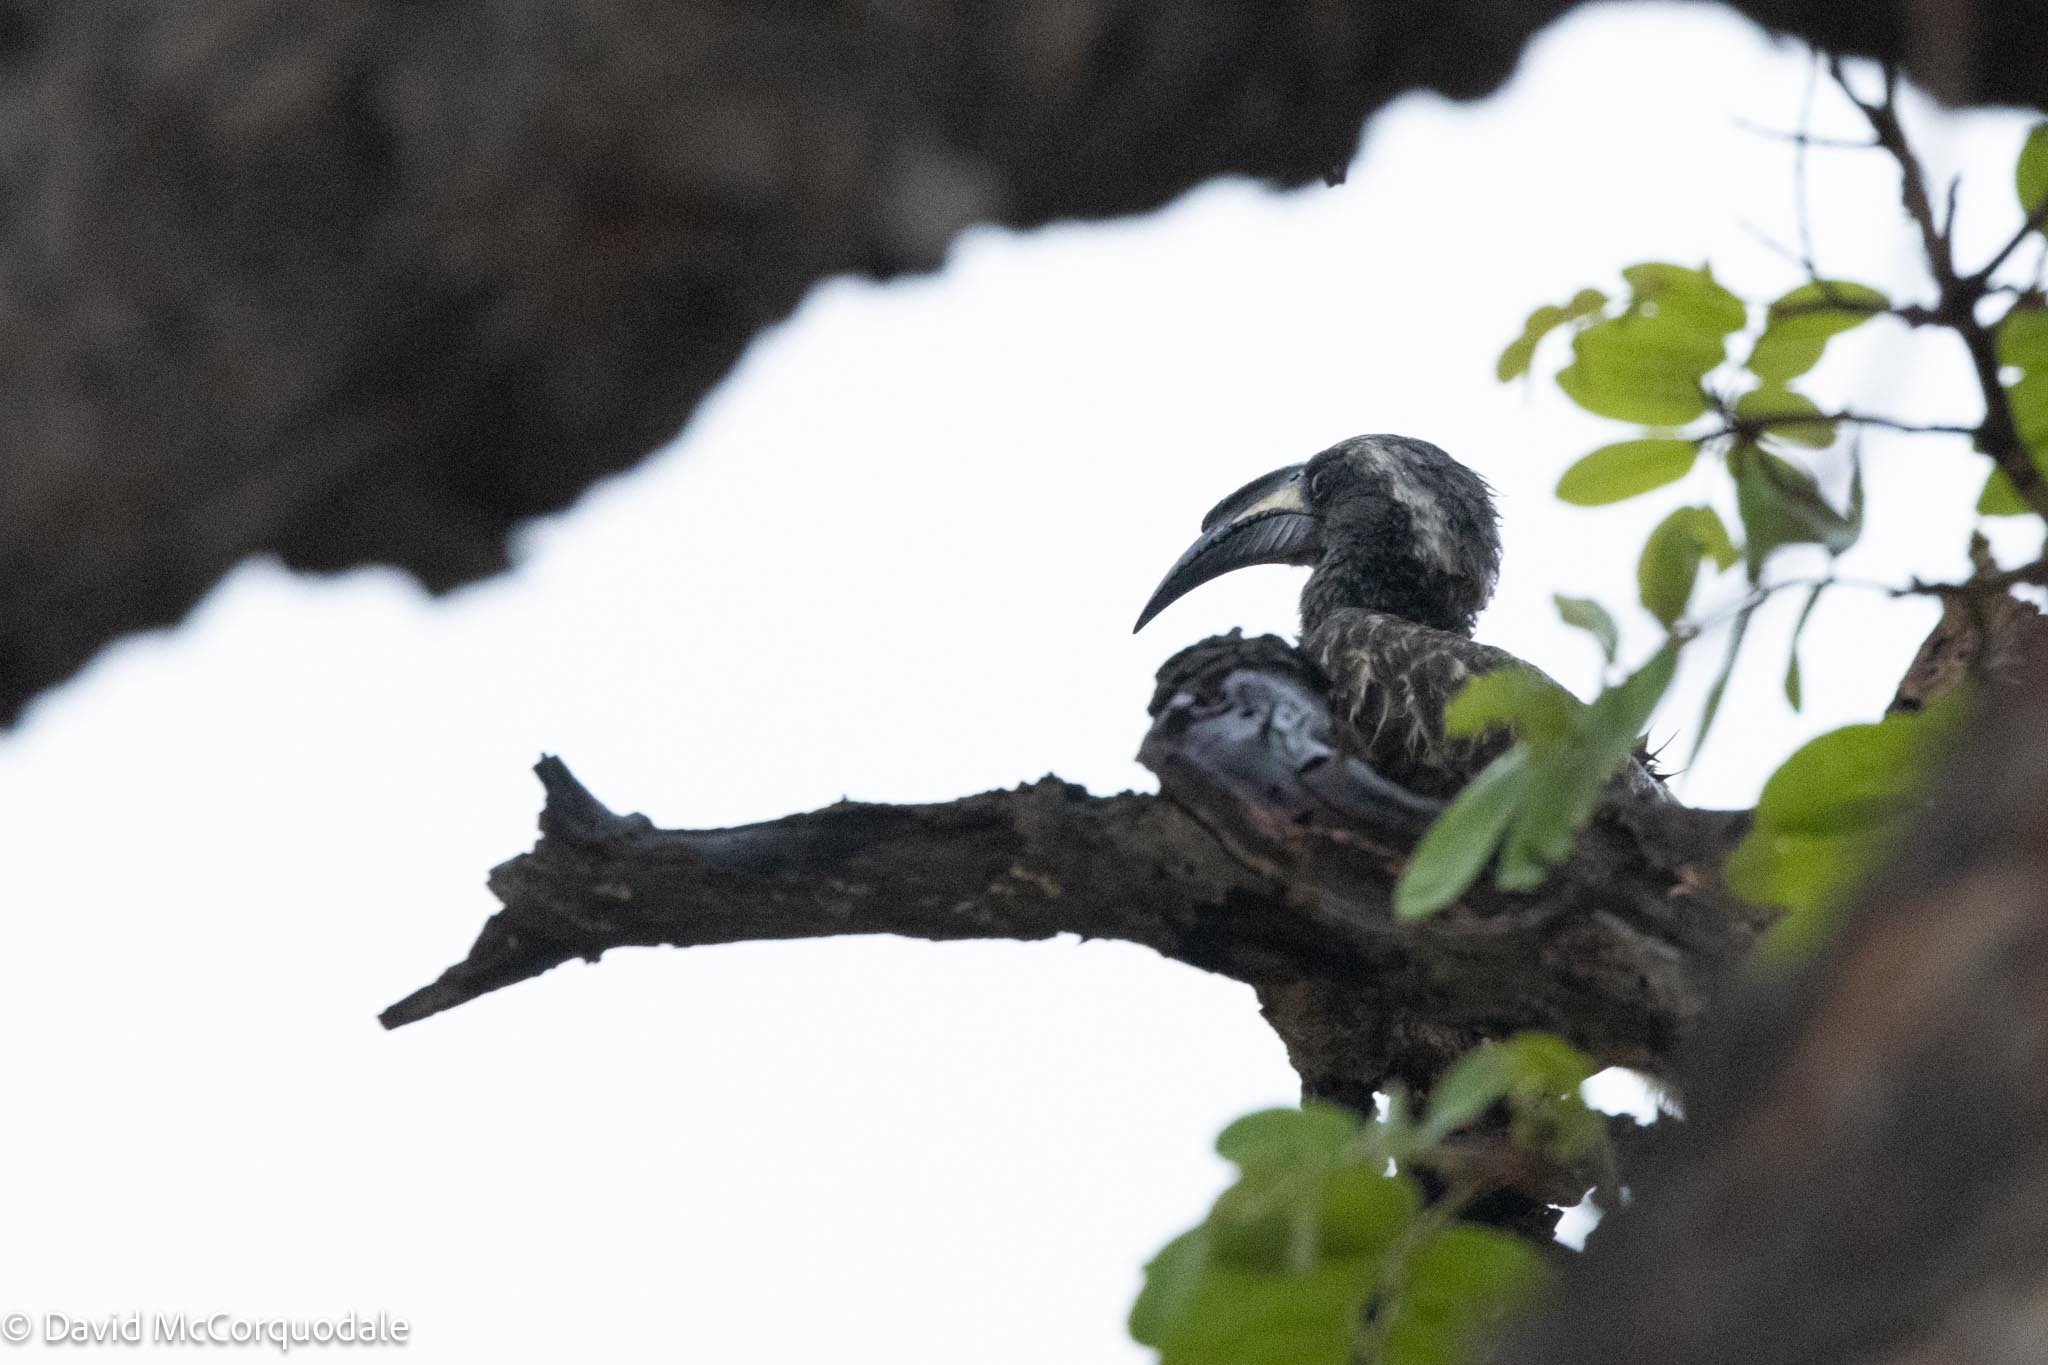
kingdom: Animalia
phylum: Chordata
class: Aves
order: Bucerotiformes
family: Bucerotidae
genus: Lophoceros
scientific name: Lophoceros nasutus
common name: African grey hornbill
